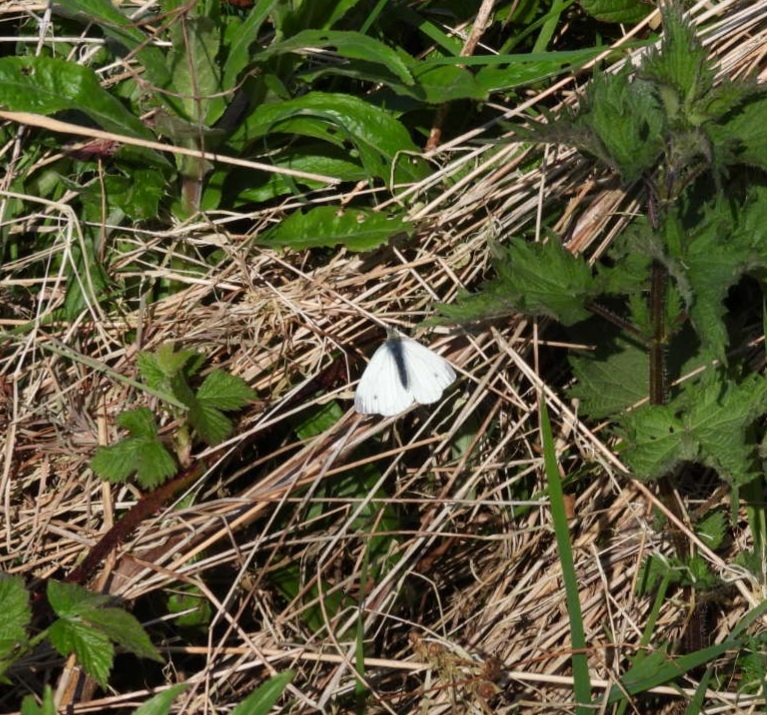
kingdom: Animalia
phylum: Arthropoda
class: Insecta
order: Lepidoptera
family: Pieridae
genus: Pieris
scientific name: Pieris napi
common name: Green-veined white
